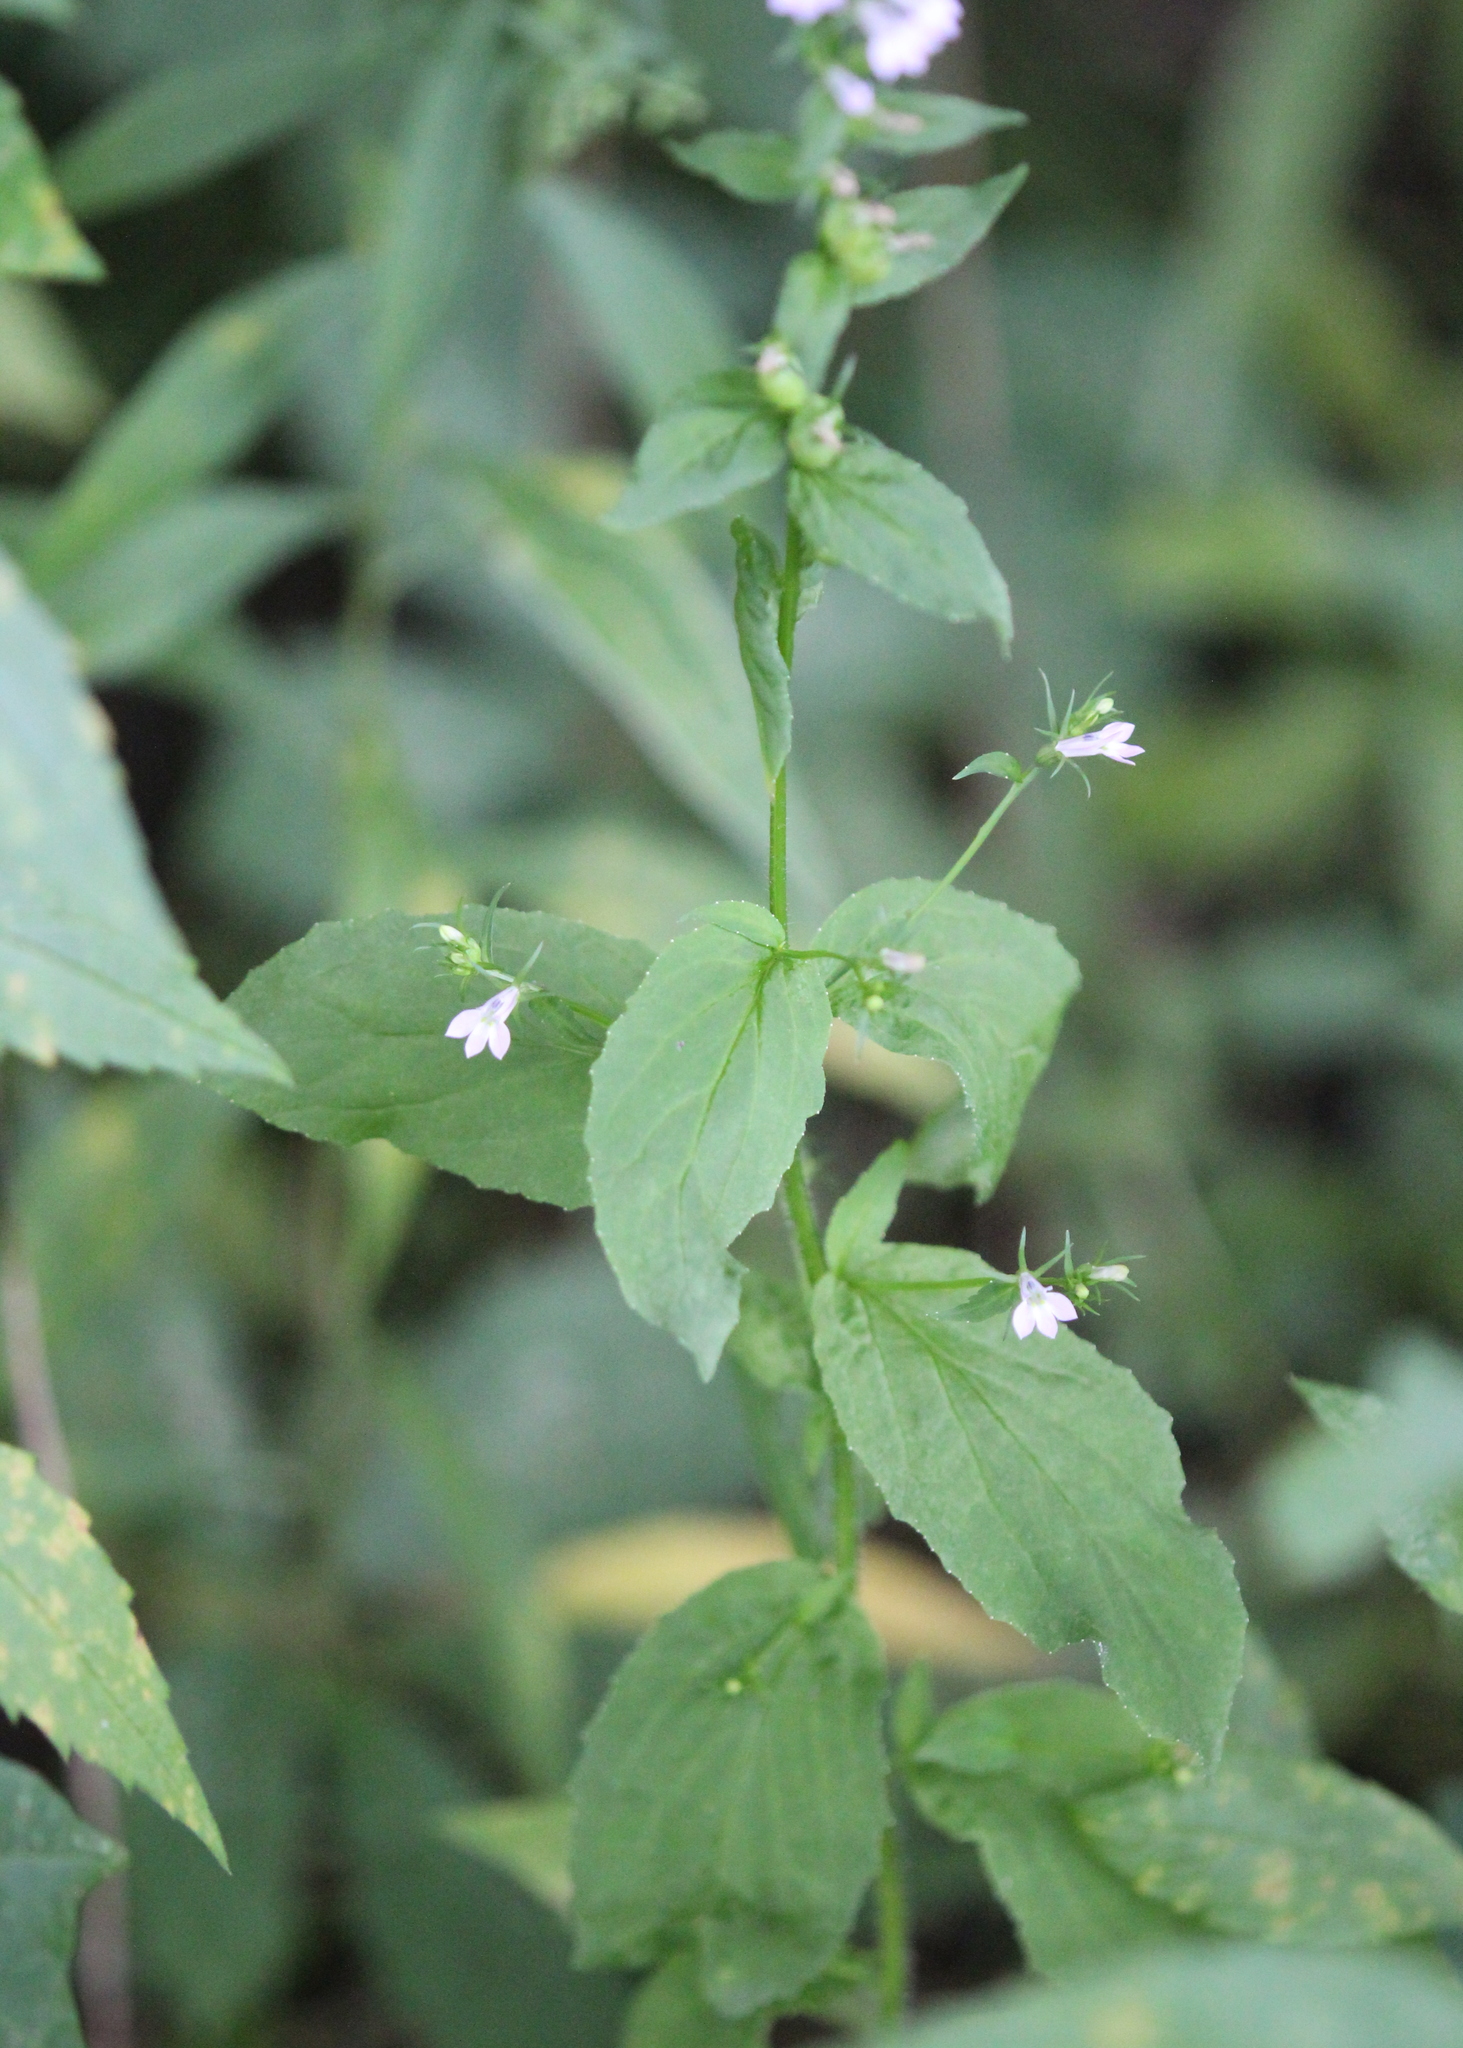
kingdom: Plantae
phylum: Tracheophyta
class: Magnoliopsida
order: Asterales
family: Campanulaceae
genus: Lobelia
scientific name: Lobelia inflata
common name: Indian tobacco
